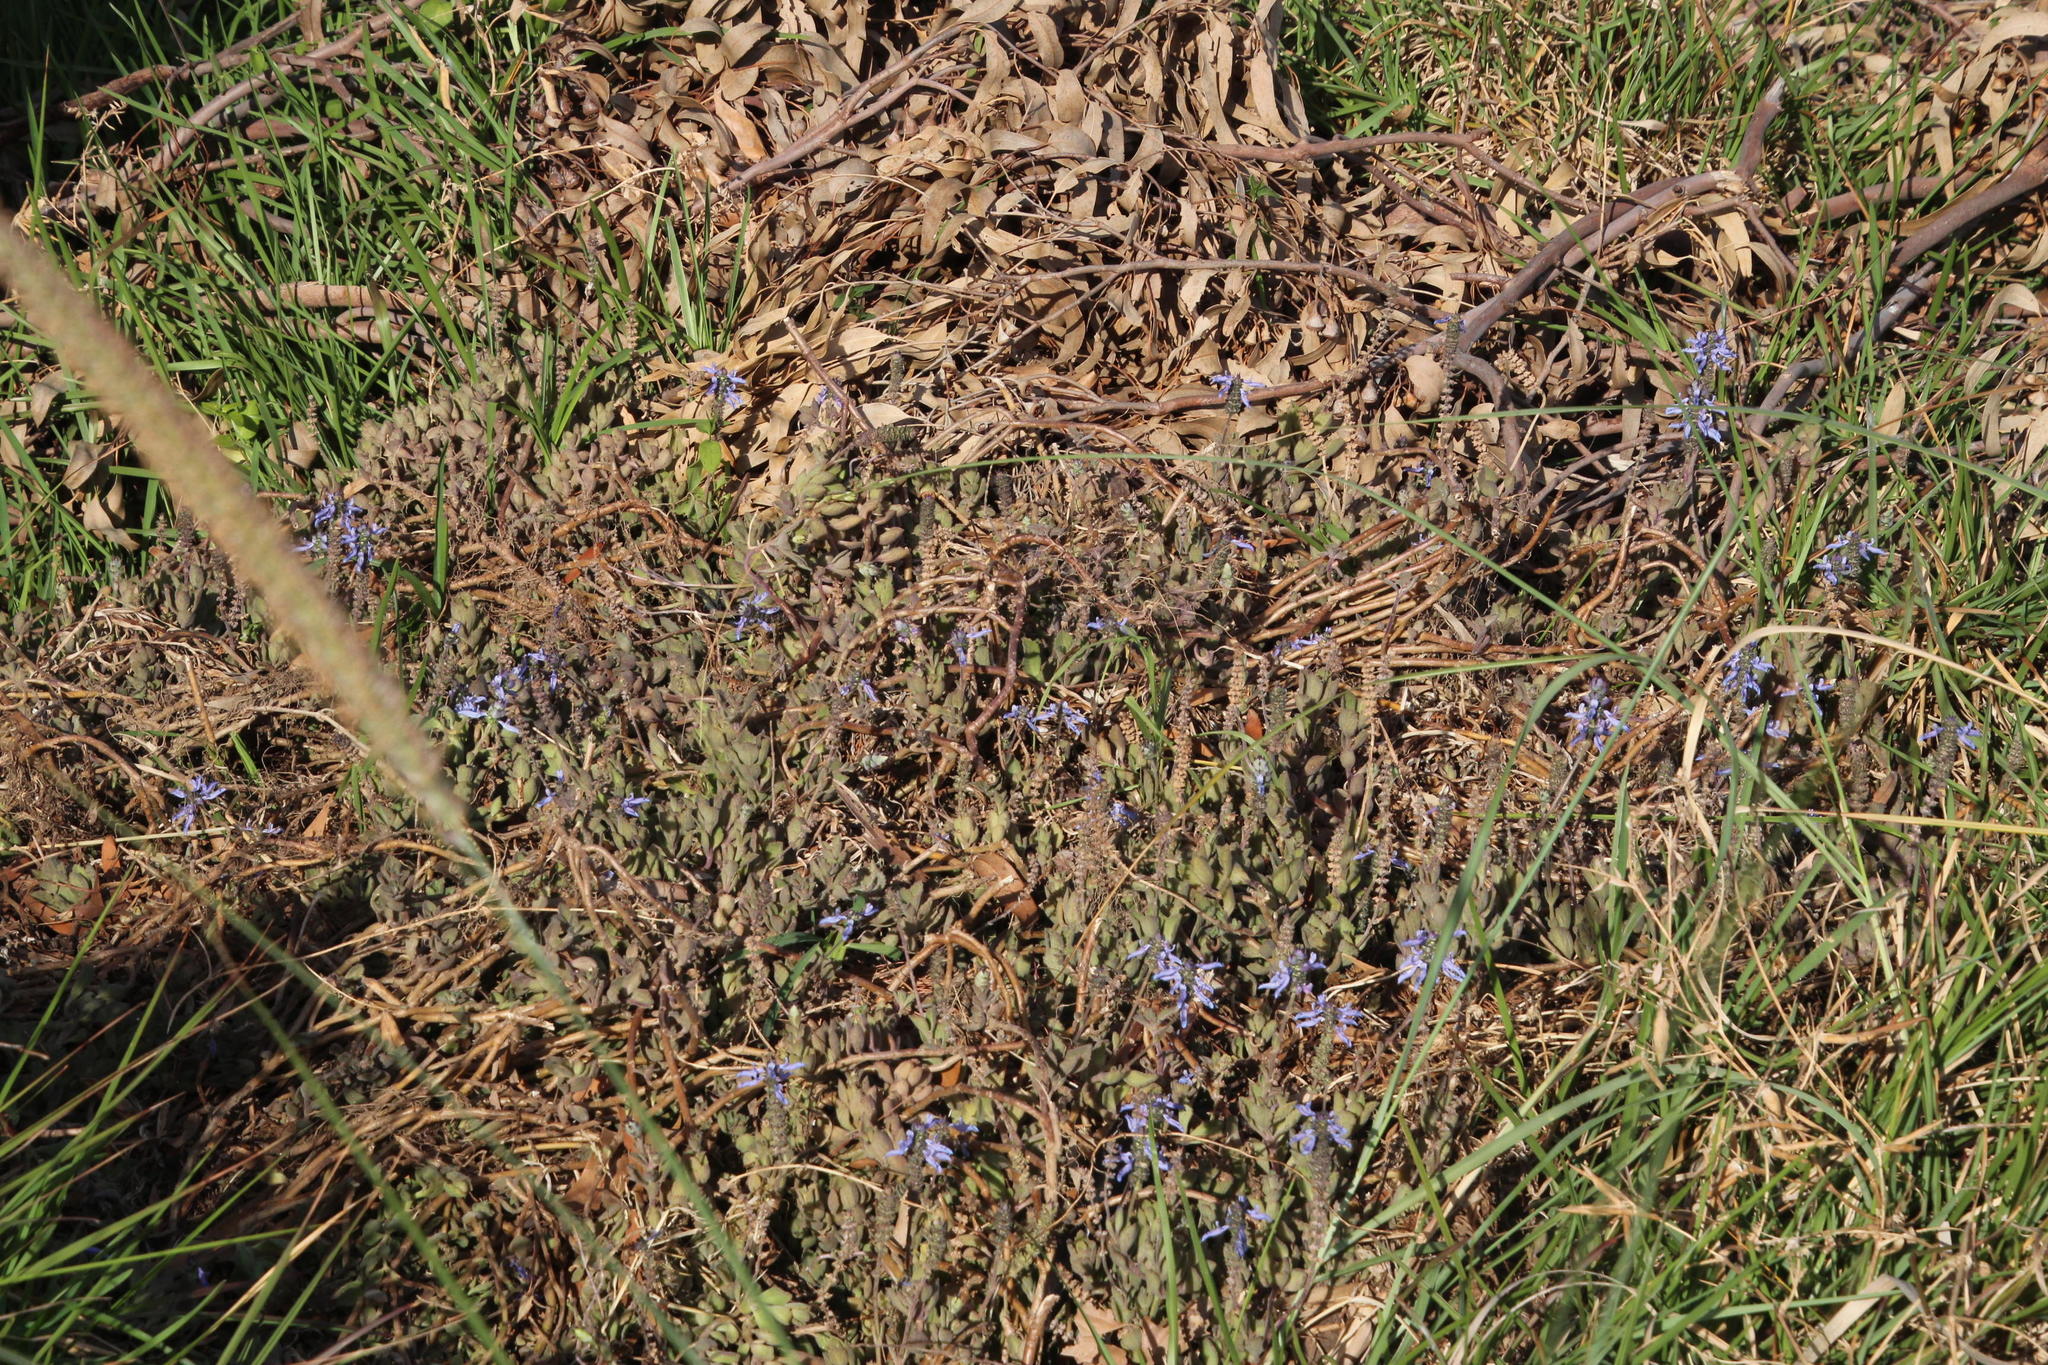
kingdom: Plantae
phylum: Tracheophyta
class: Magnoliopsida
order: Lamiales
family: Lamiaceae
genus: Coleus
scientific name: Coleus neochilus
